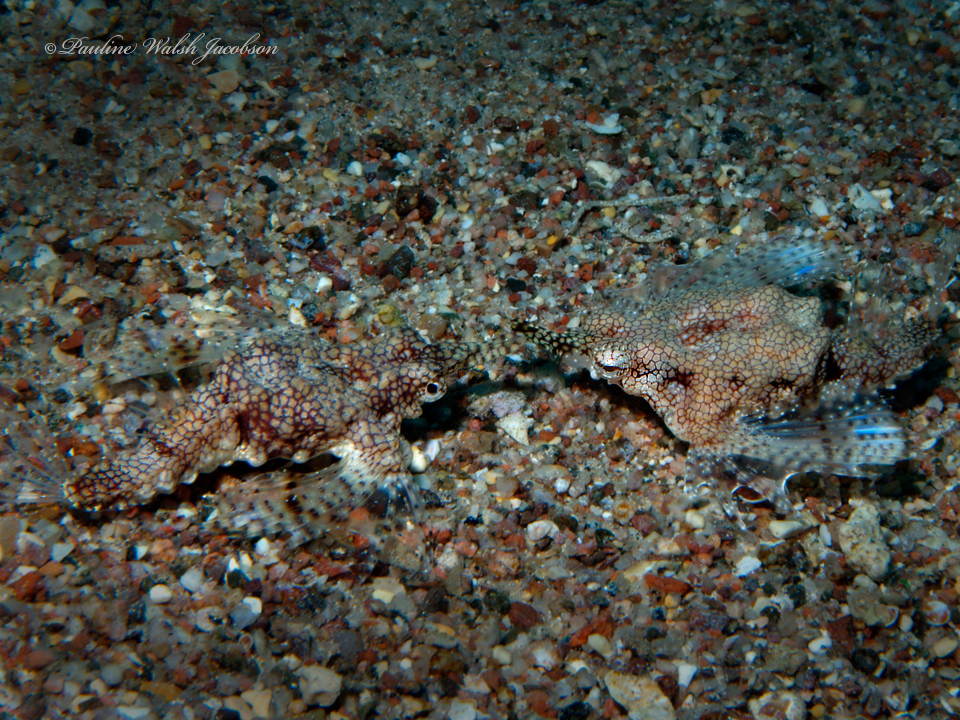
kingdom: Animalia
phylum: Chordata
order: Gasterosteiformes
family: Pegasidae
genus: Eurypegasus
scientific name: Eurypegasus draconis
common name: Short dragonfish
